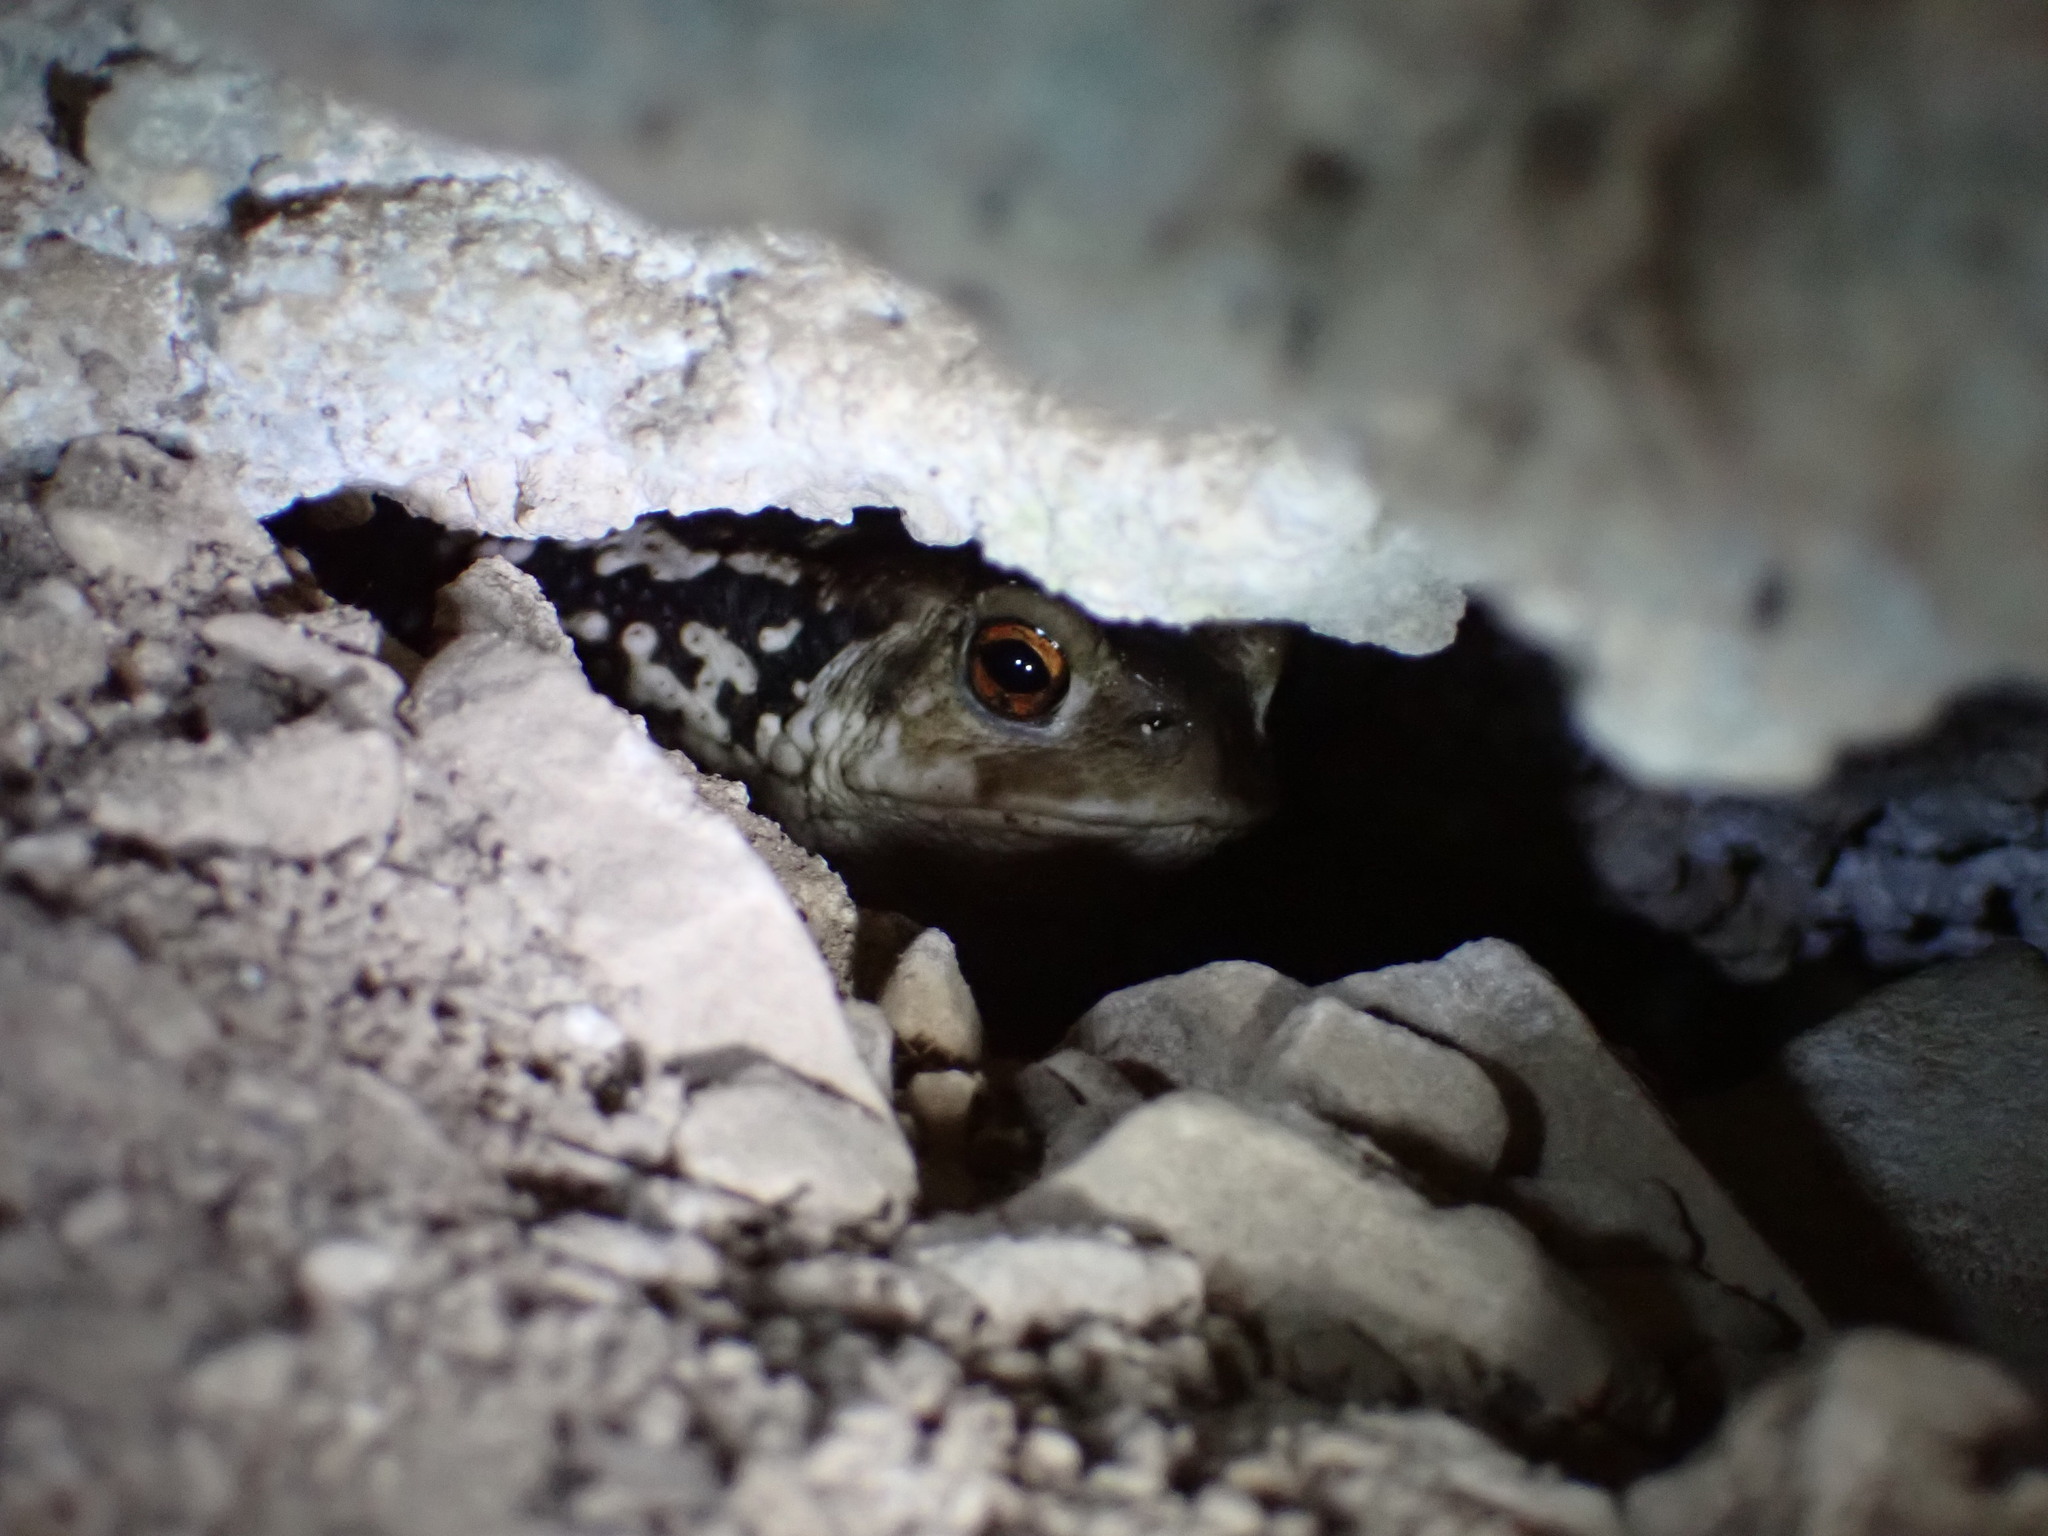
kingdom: Animalia
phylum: Chordata
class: Amphibia
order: Anura
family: Bufonidae
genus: Bufo
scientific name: Bufo spinosus
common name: Western common toad
